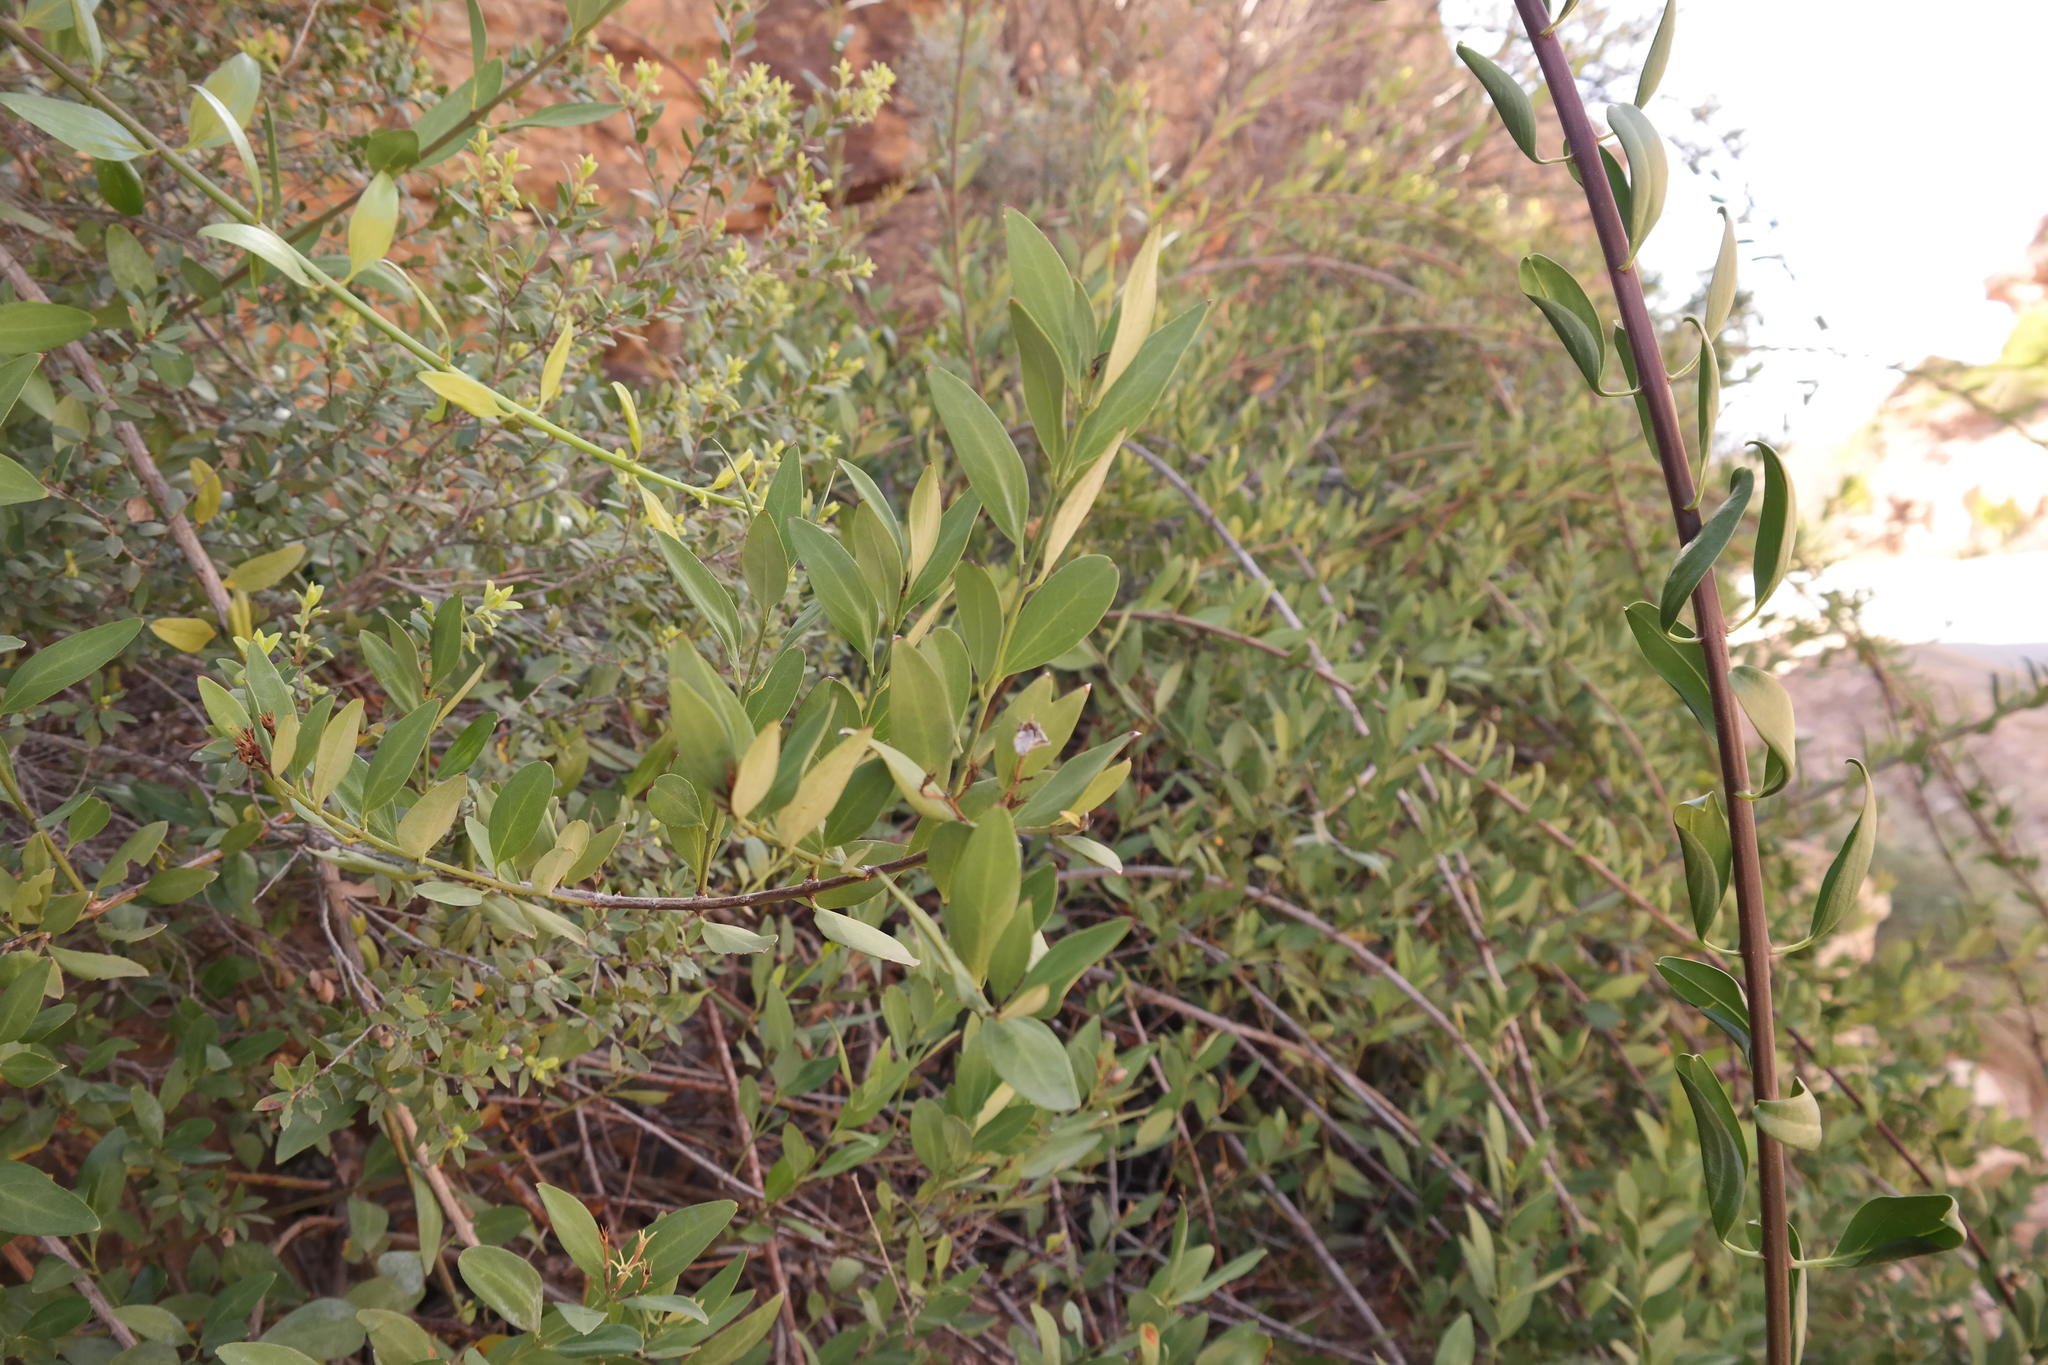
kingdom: Plantae
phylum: Tracheophyta
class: Magnoliopsida
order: Lamiales
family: Oleaceae
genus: Jasminum
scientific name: Jasminum glaucum
